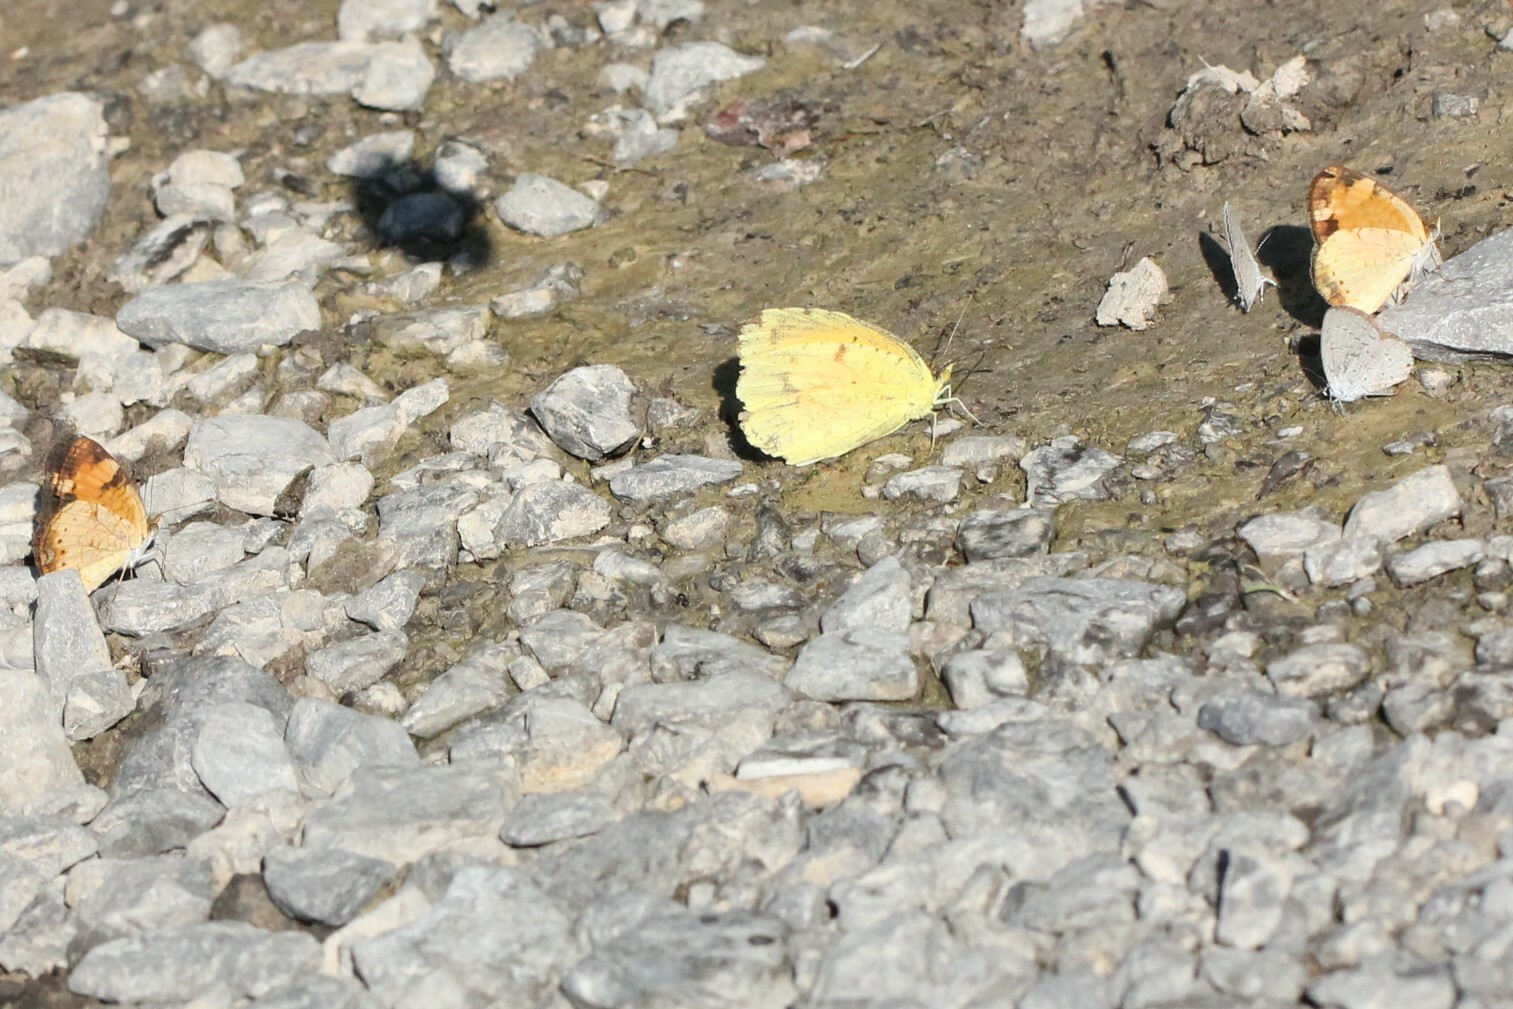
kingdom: Animalia
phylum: Arthropoda
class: Insecta
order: Lepidoptera
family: Pieridae
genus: Abaeis
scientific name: Abaeis nicippe
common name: Sleepy orange
